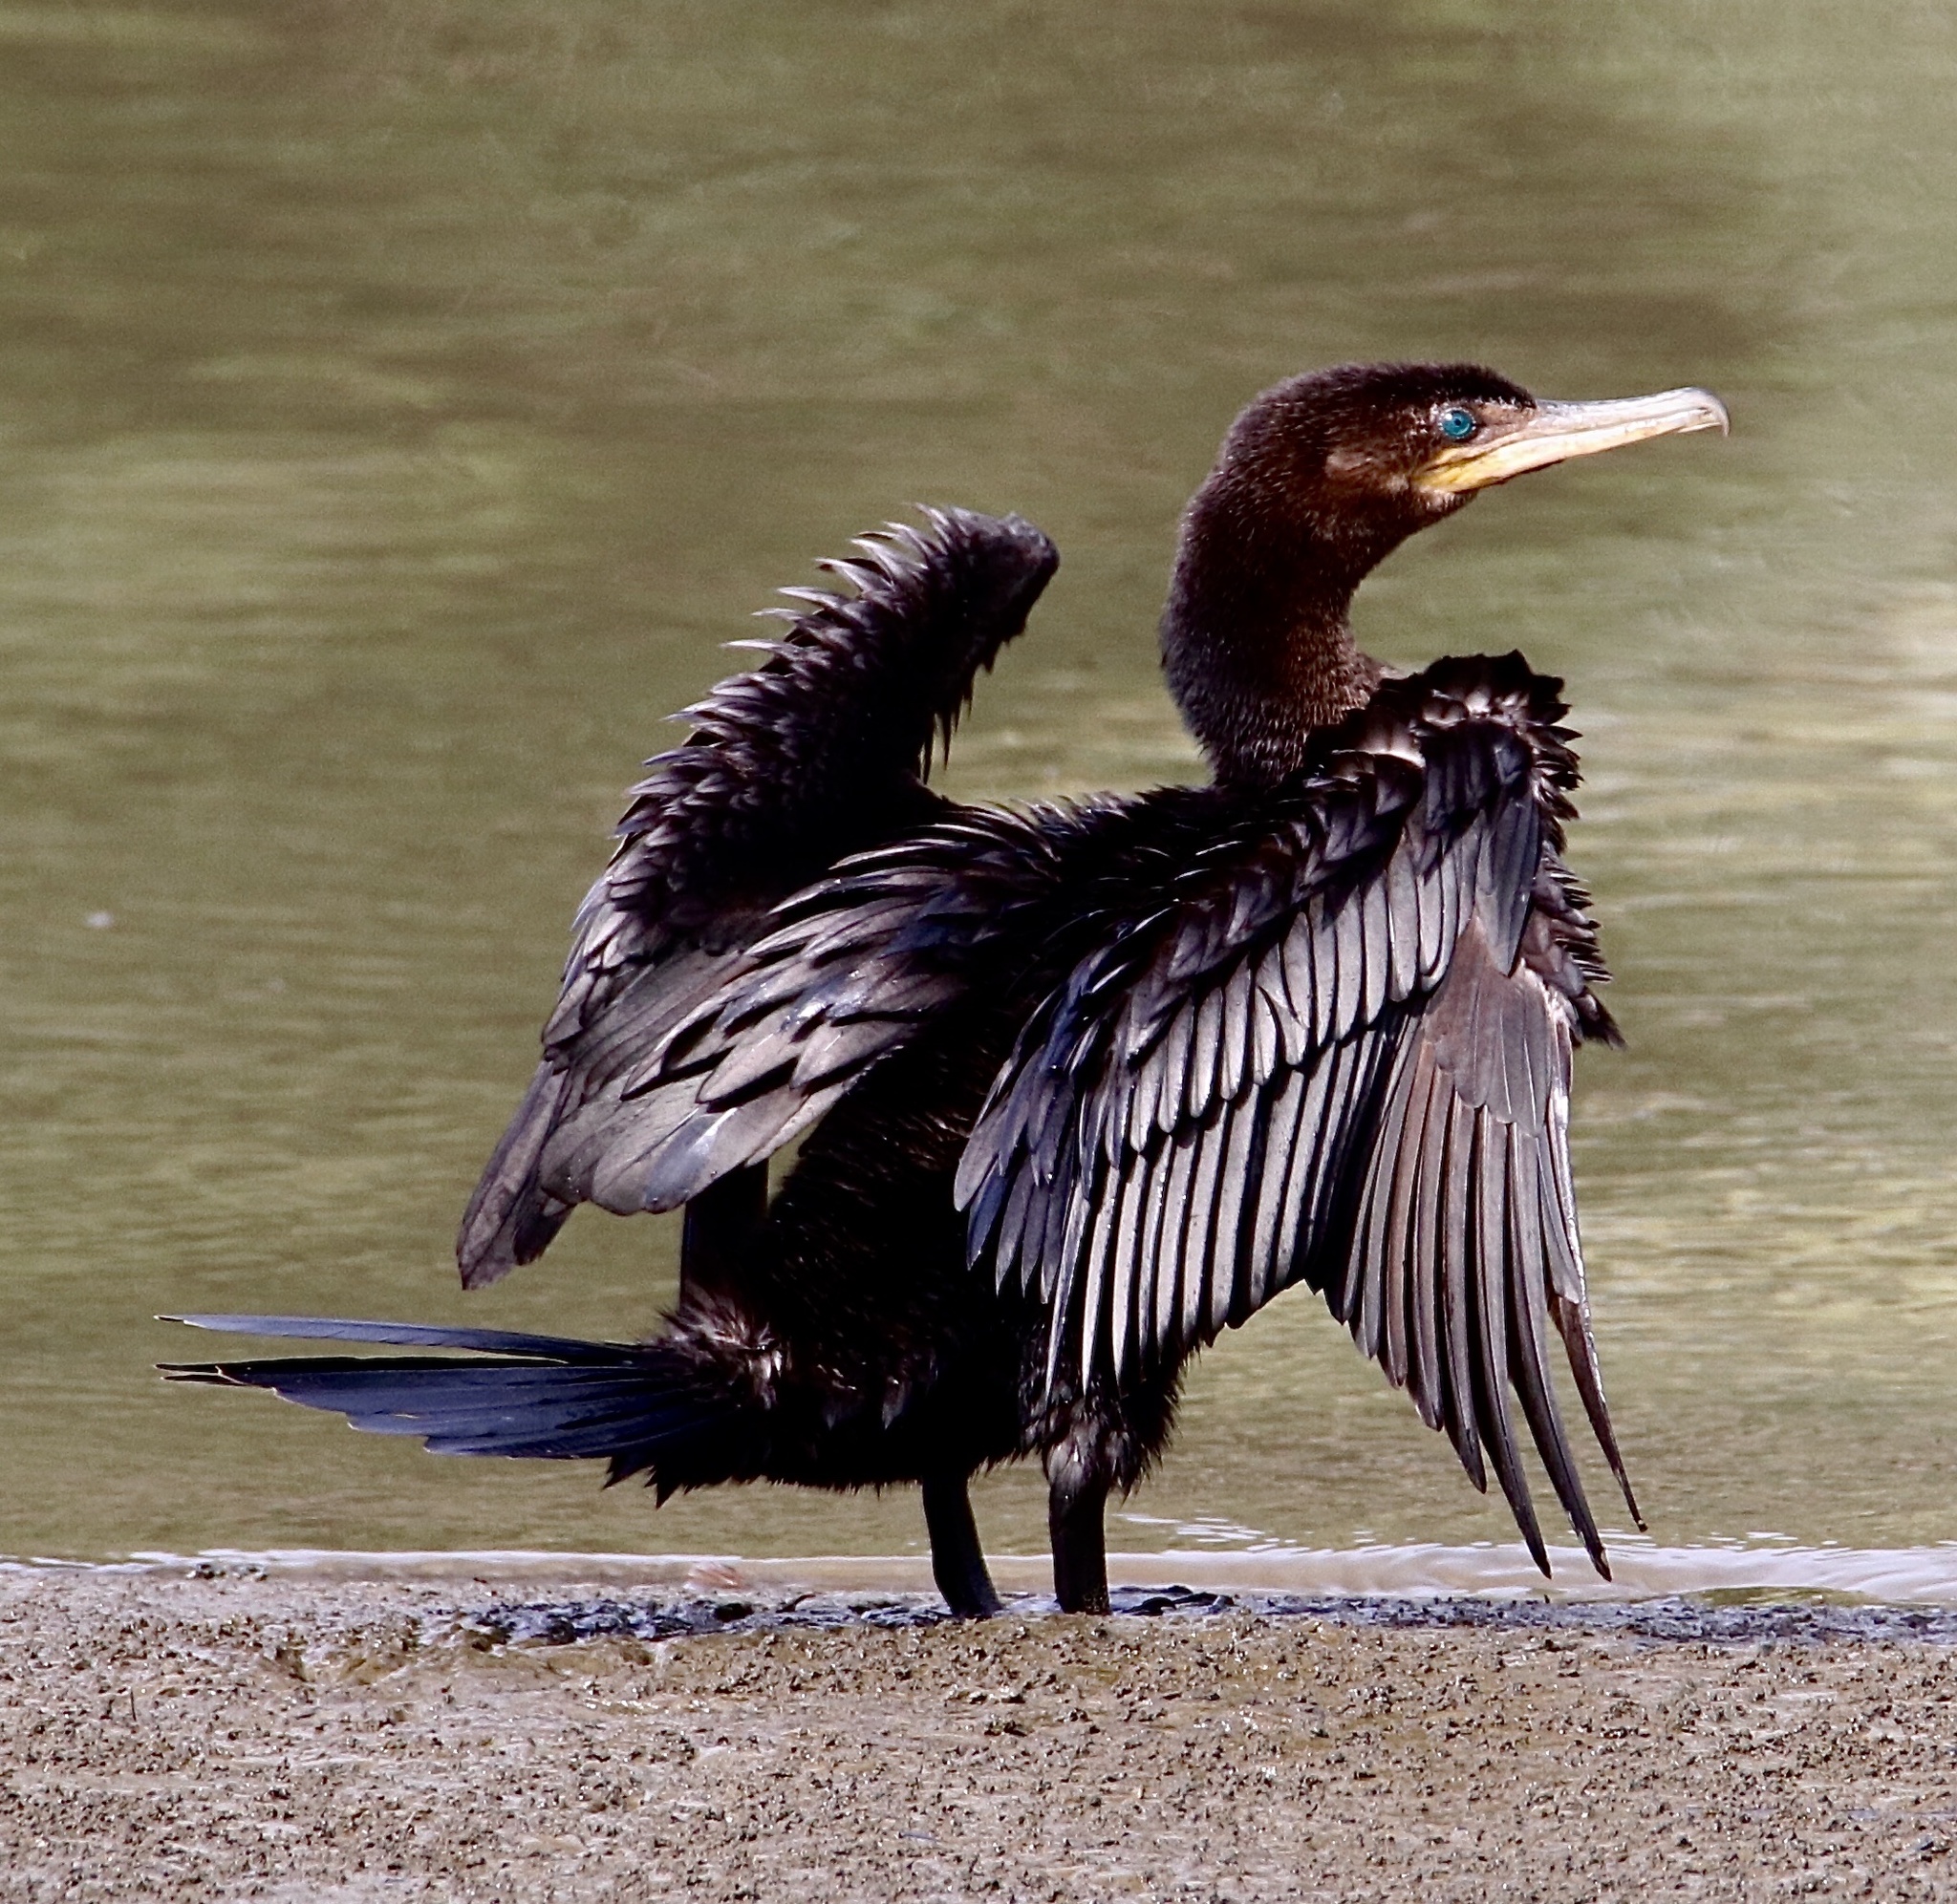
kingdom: Animalia
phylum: Chordata
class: Aves
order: Suliformes
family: Phalacrocoracidae
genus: Phalacrocorax
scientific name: Phalacrocorax brasilianus
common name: Neotropic cormorant
